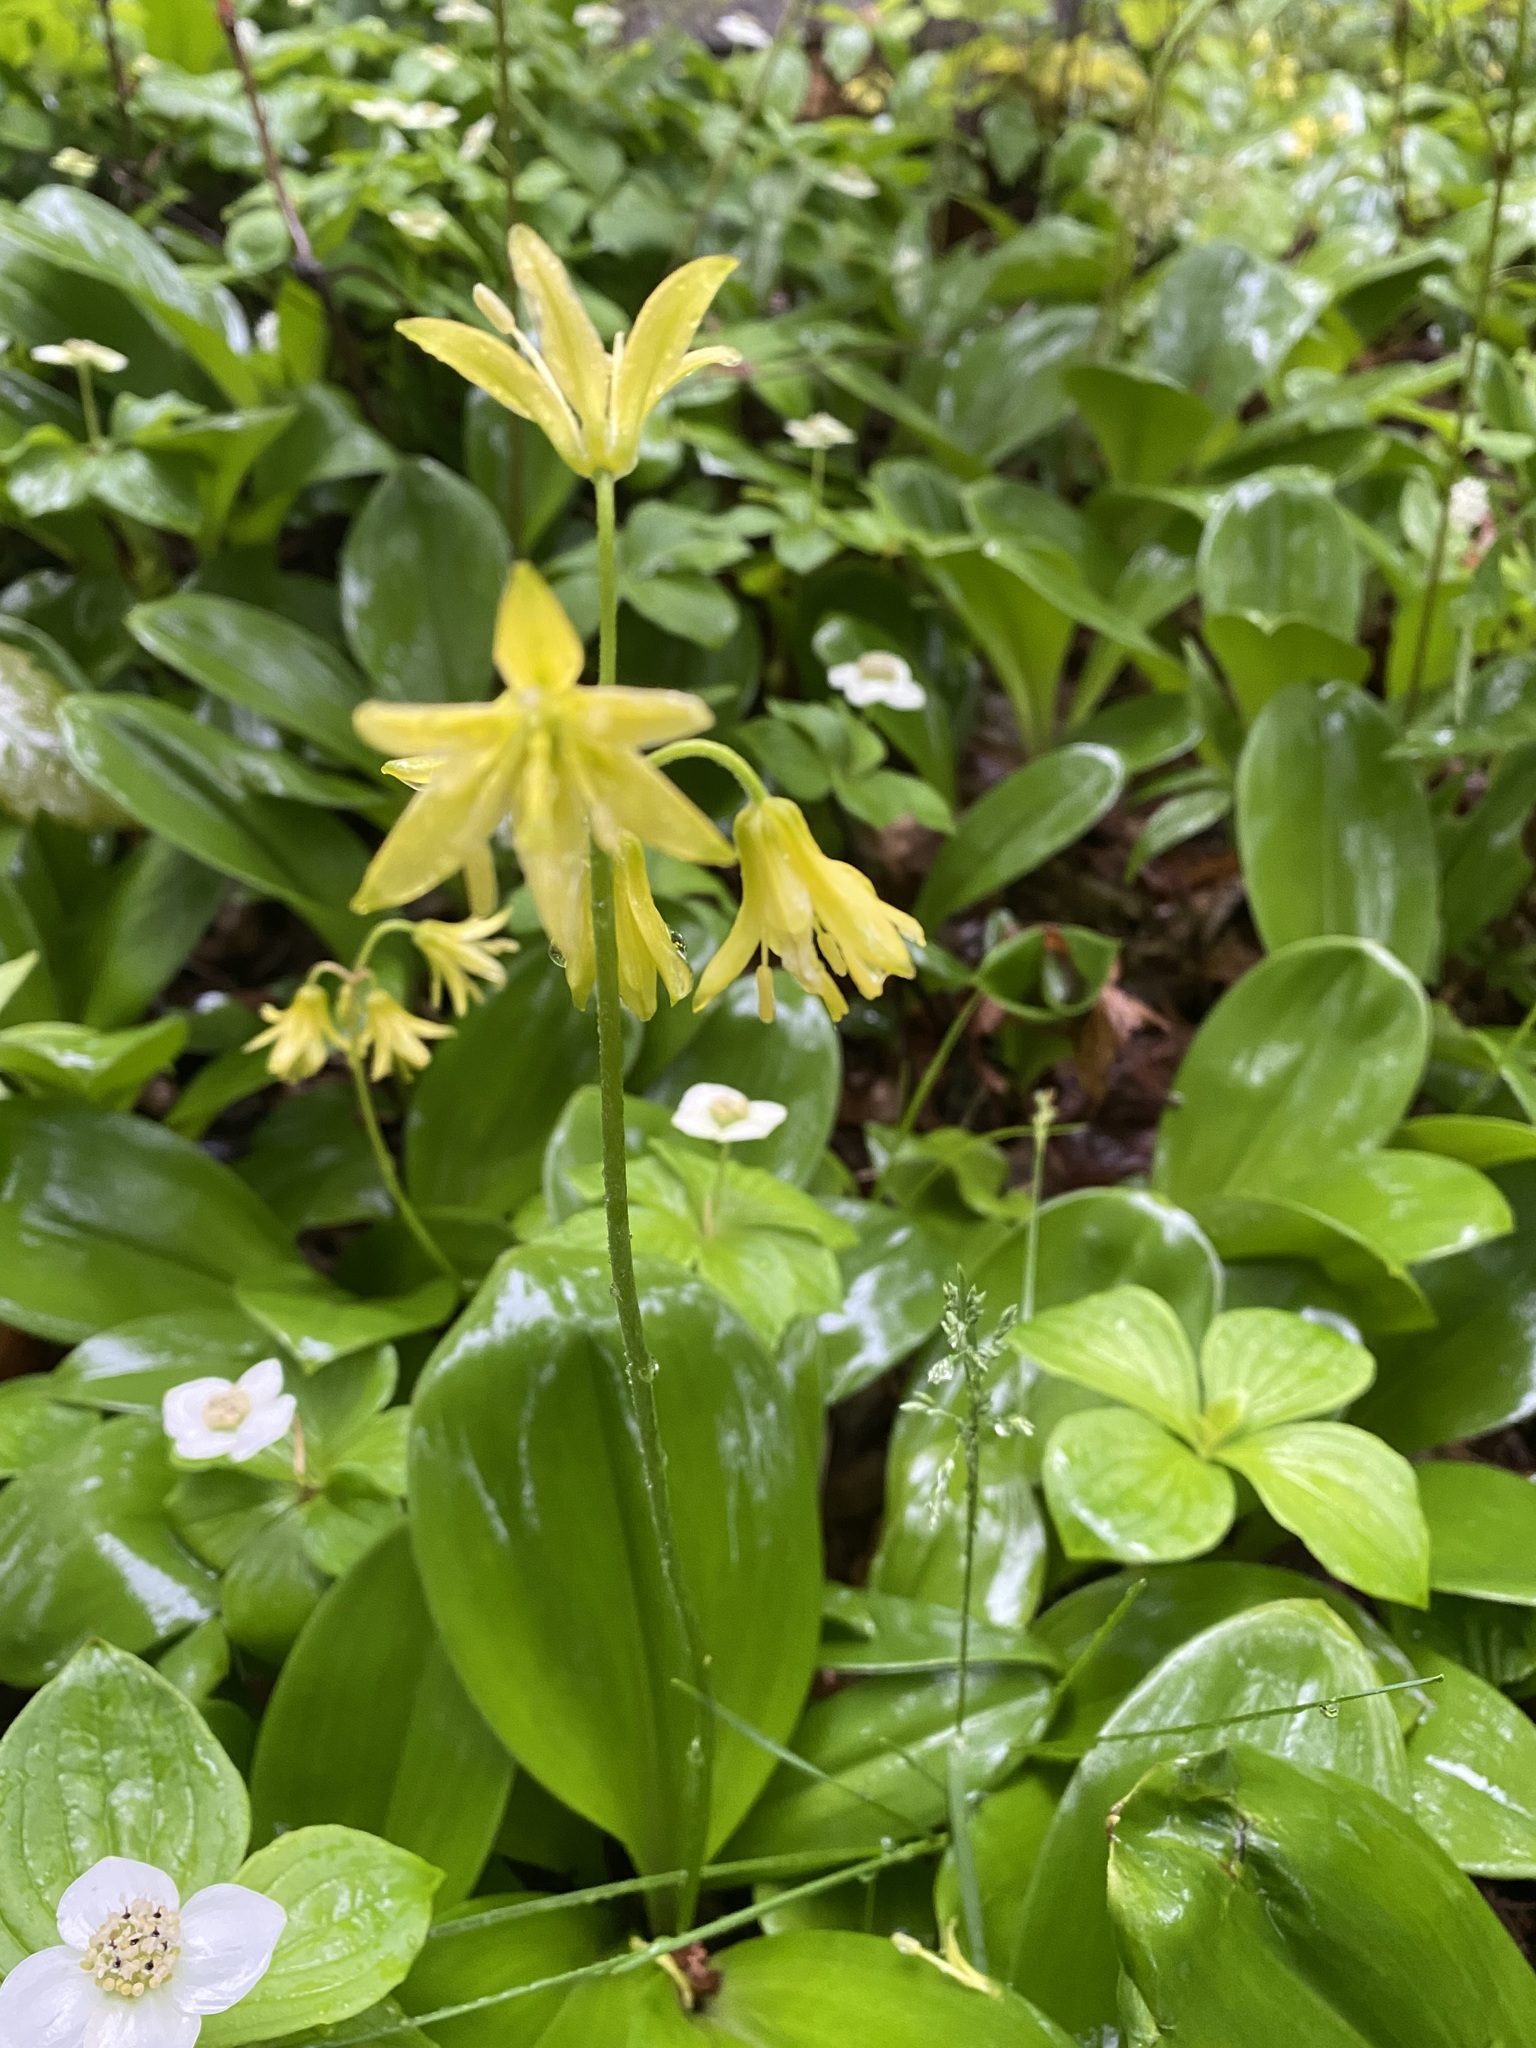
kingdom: Plantae
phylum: Tracheophyta
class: Liliopsida
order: Liliales
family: Liliaceae
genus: Clintonia
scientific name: Clintonia borealis
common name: Yellow clintonia
